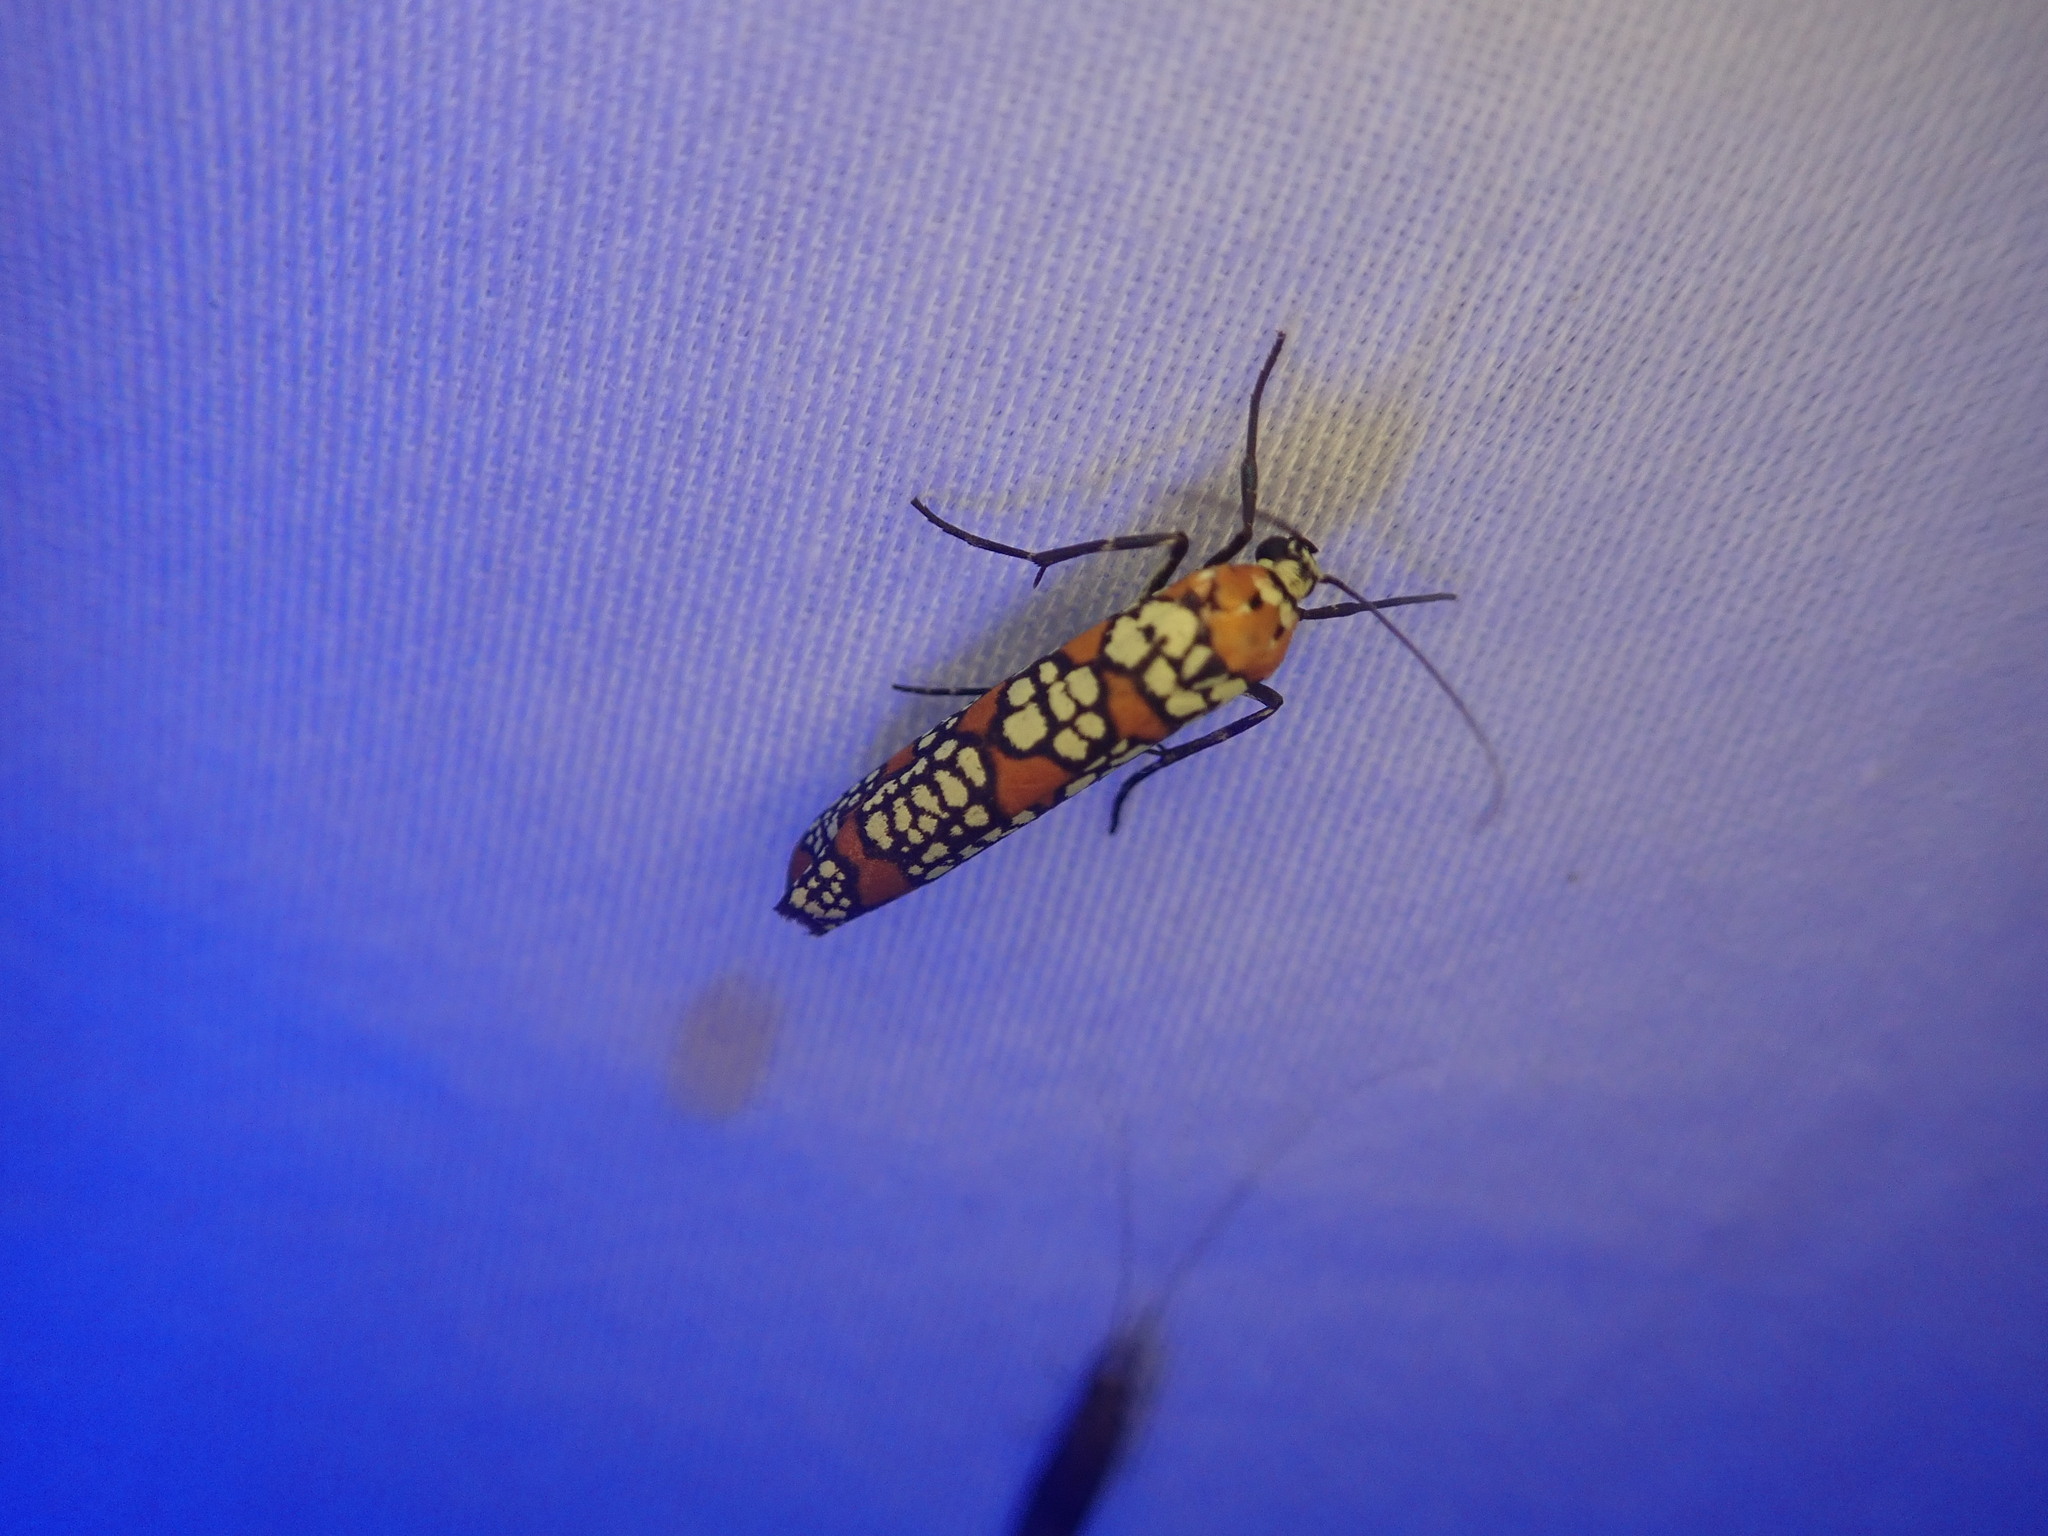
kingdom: Animalia
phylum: Arthropoda
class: Insecta
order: Lepidoptera
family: Attevidae
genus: Atteva
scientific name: Atteva punctella
